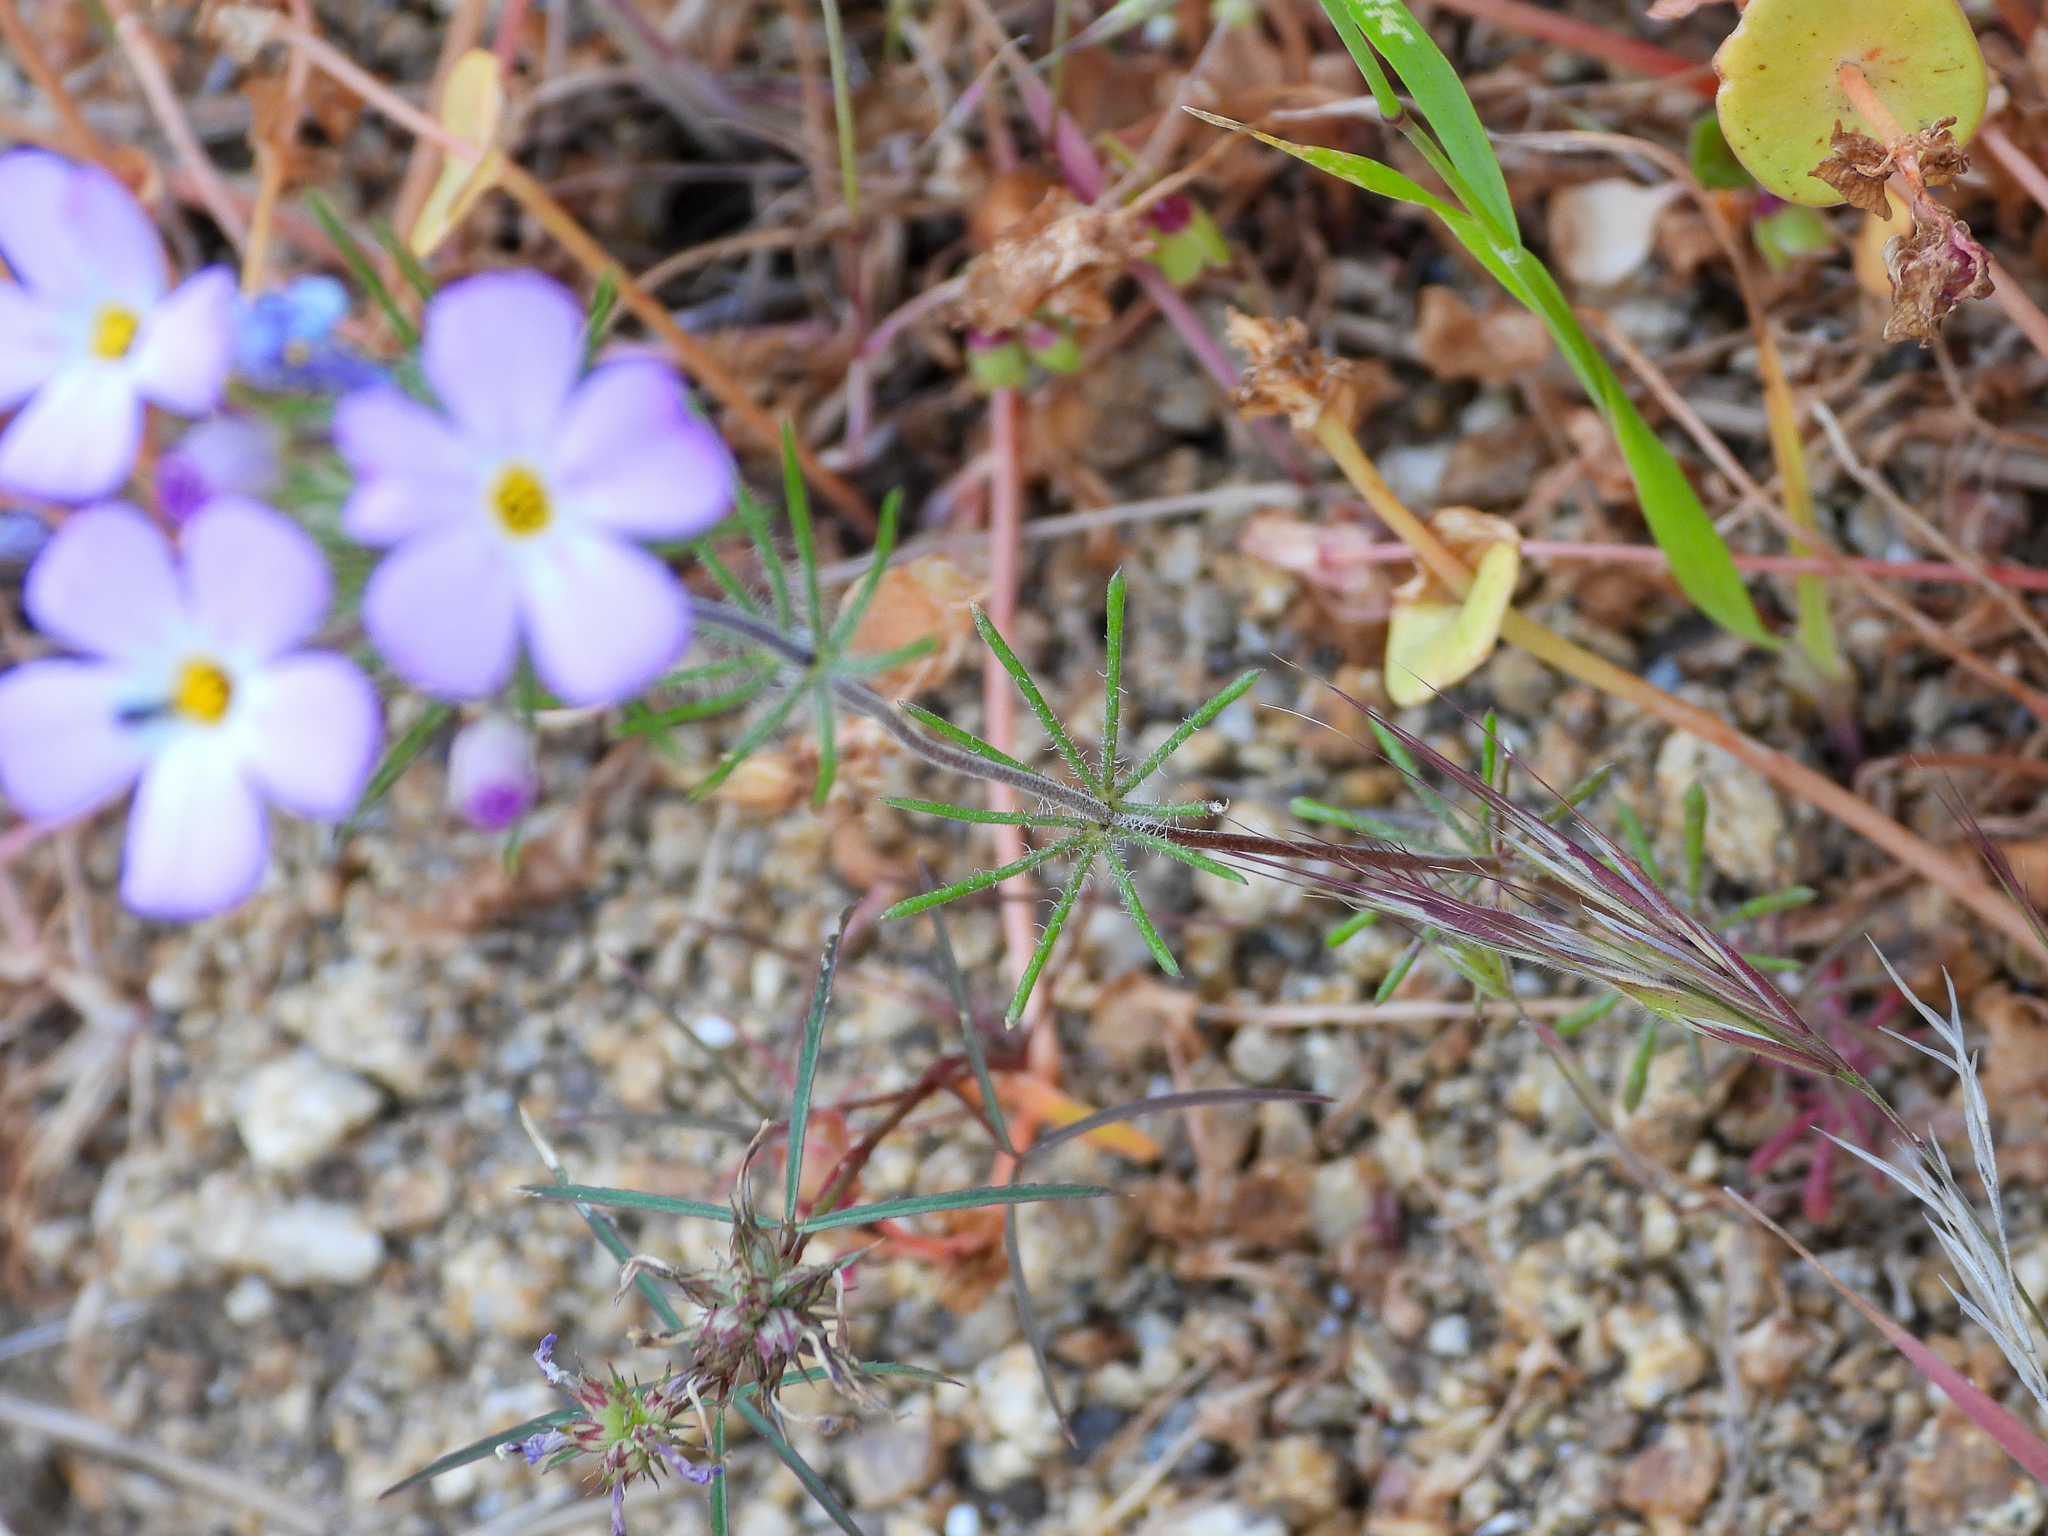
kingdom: Plantae
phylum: Tracheophyta
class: Magnoliopsida
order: Ericales
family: Polemoniaceae
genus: Leptosiphon
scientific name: Leptosiphon montanus
